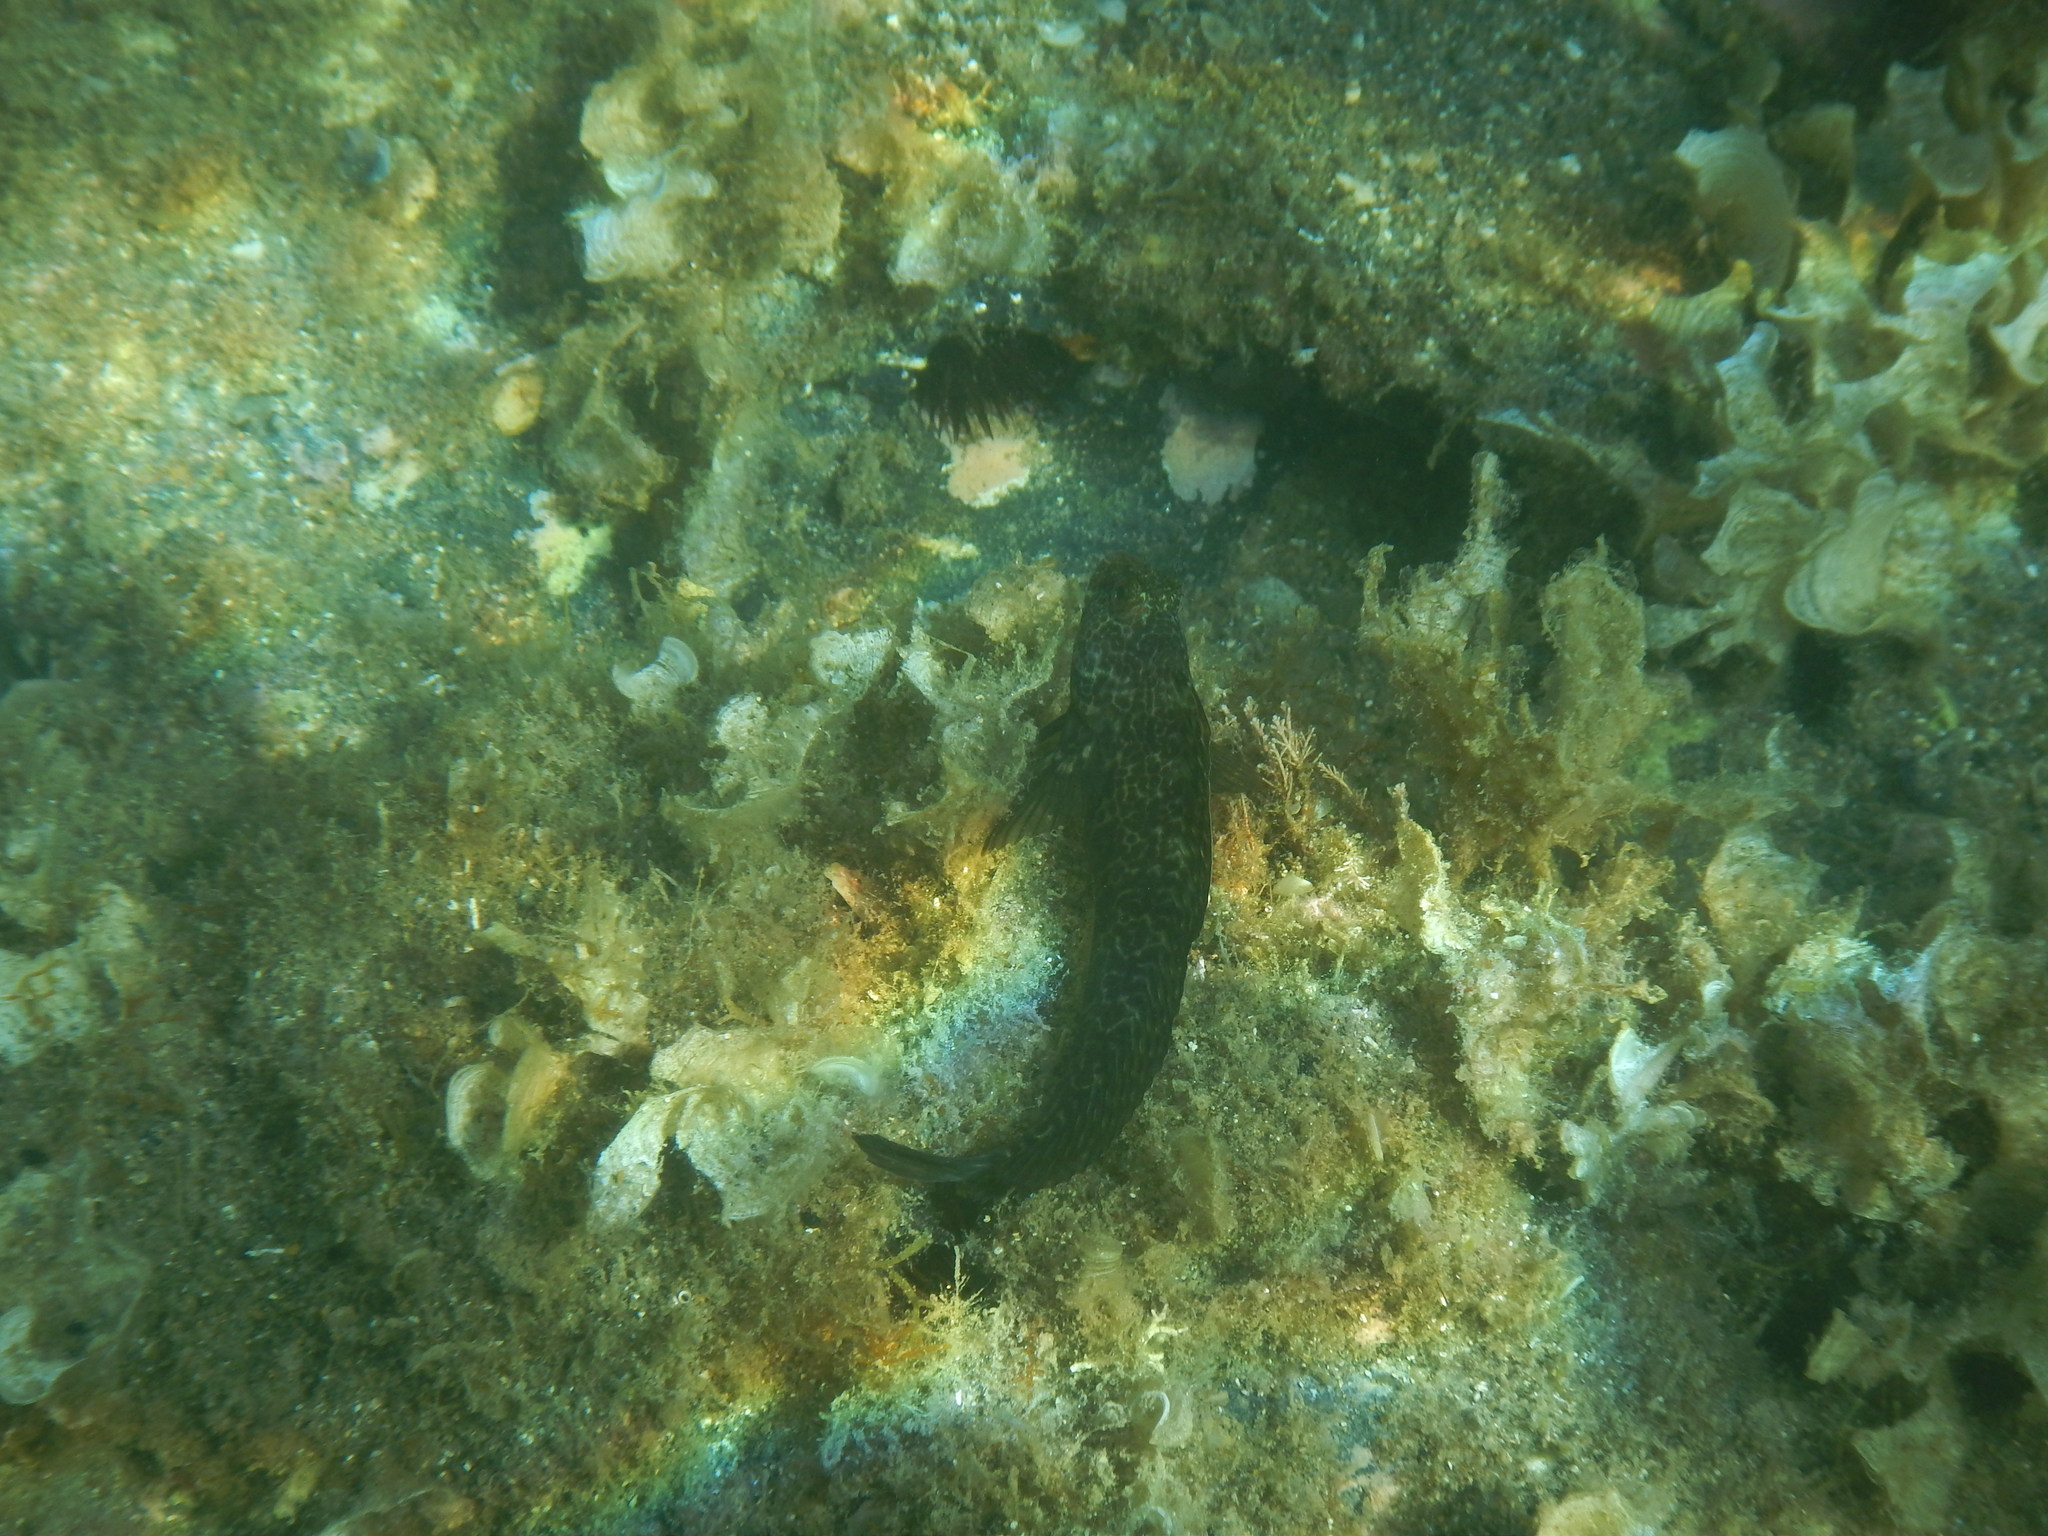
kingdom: Animalia
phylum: Chordata
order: Perciformes
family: Blenniidae
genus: Parablennius
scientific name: Parablennius pilicornis
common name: Ringneck blenny
